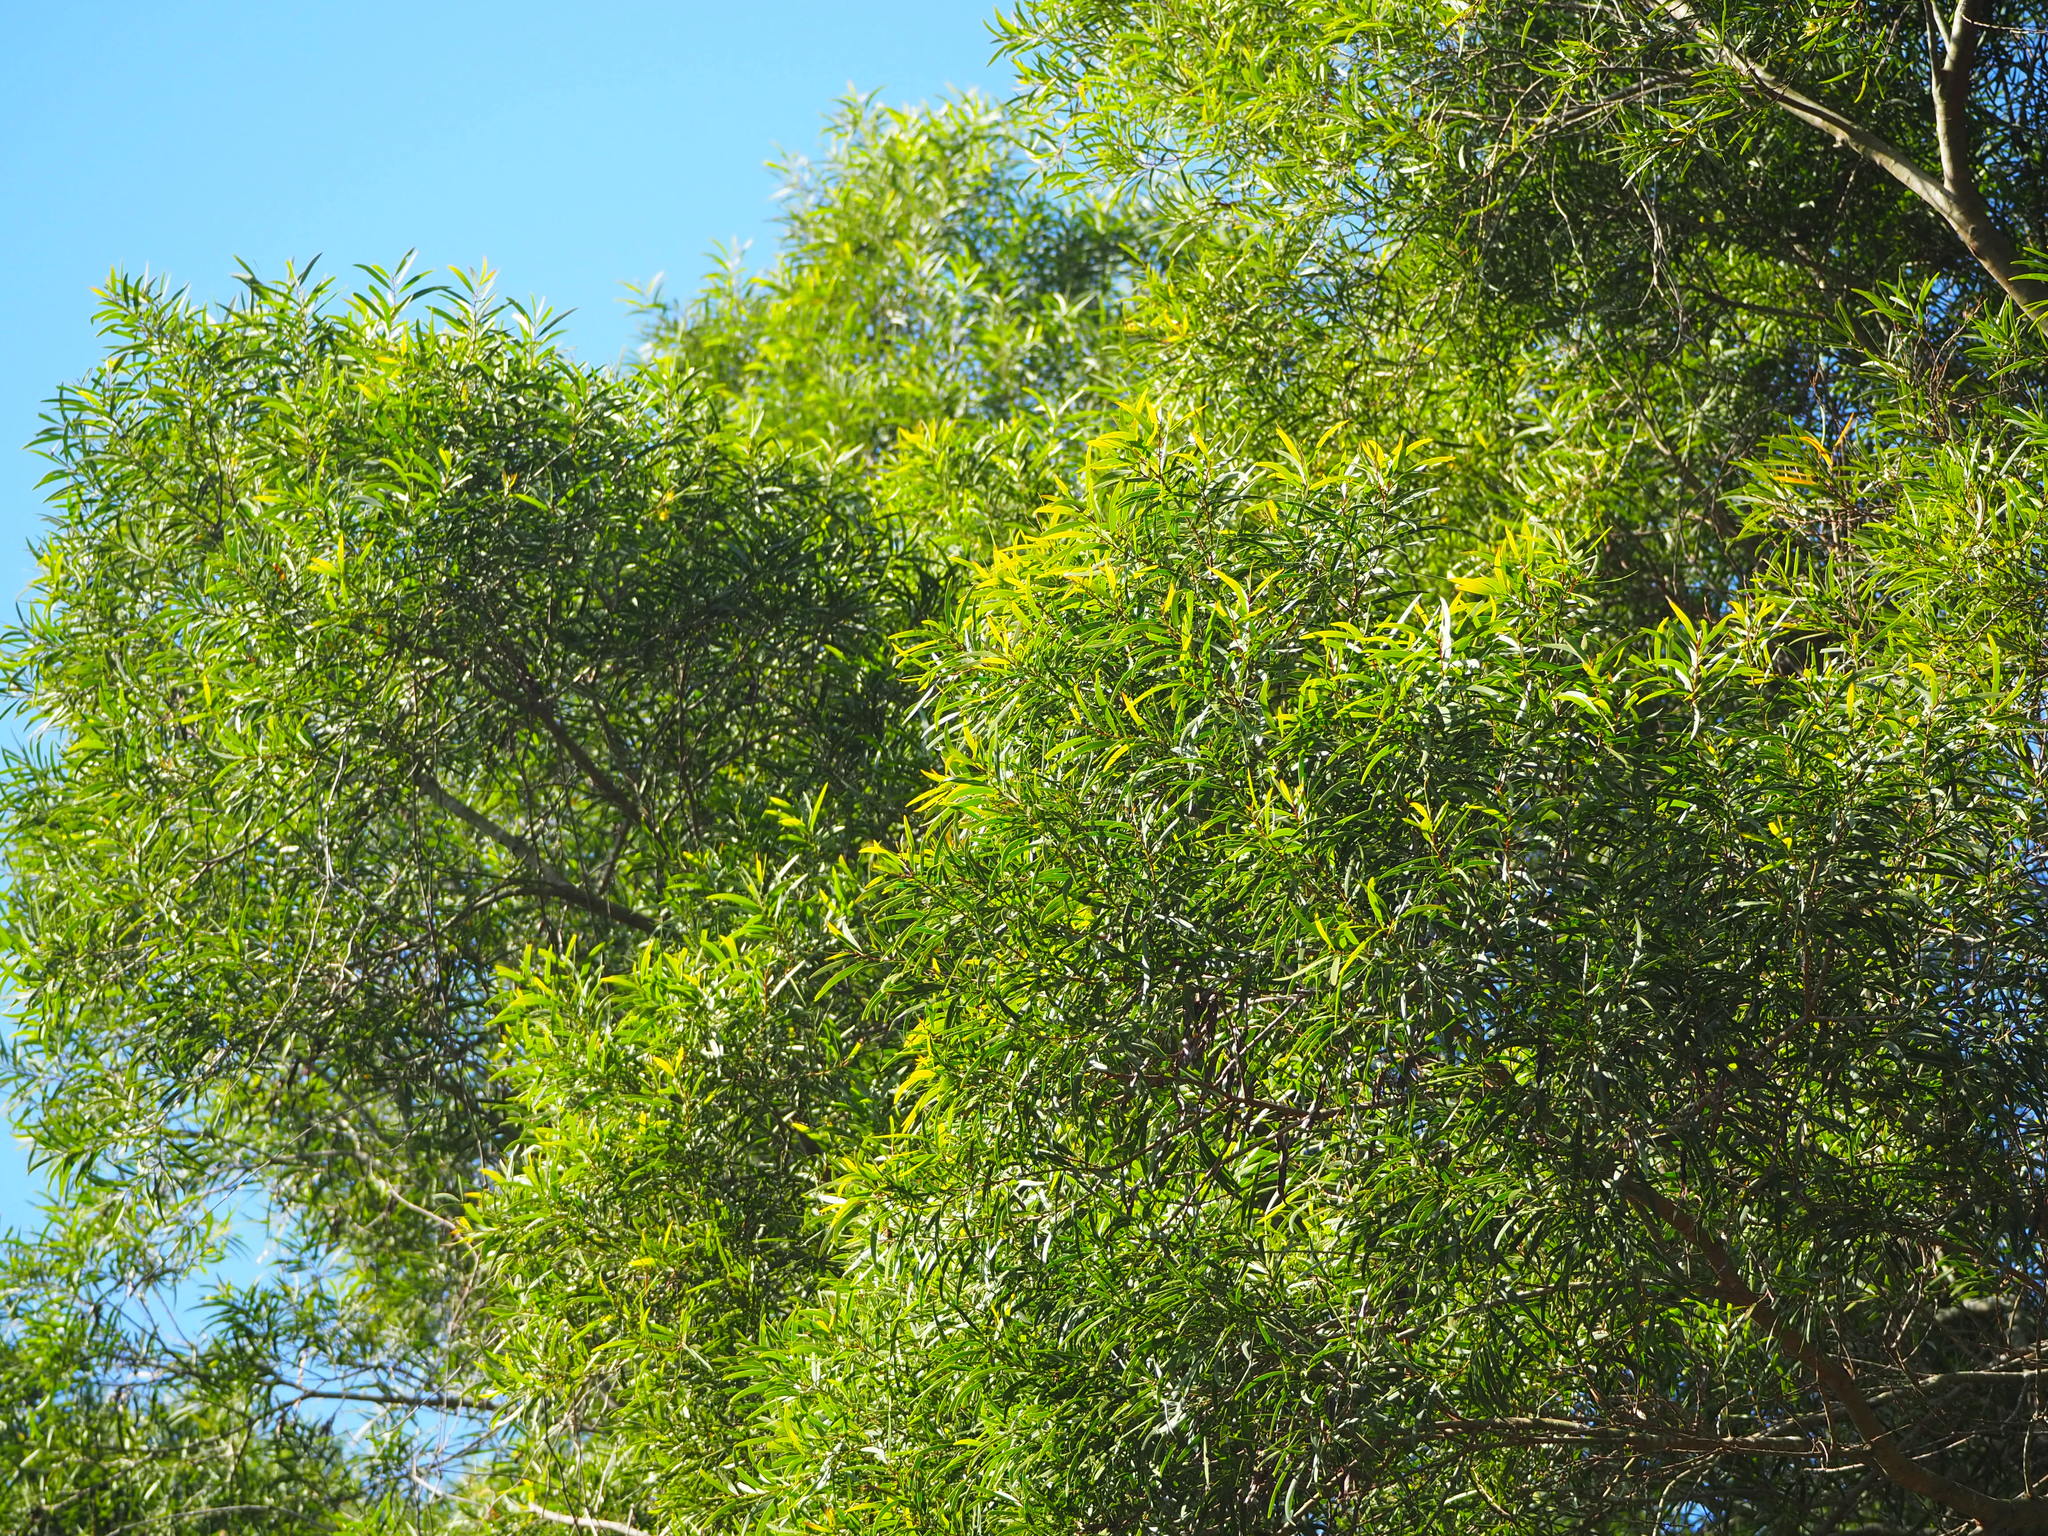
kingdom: Plantae
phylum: Tracheophyta
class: Magnoliopsida
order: Fabales
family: Fabaceae
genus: Acacia
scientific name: Acacia confusa
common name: Formosan koa
